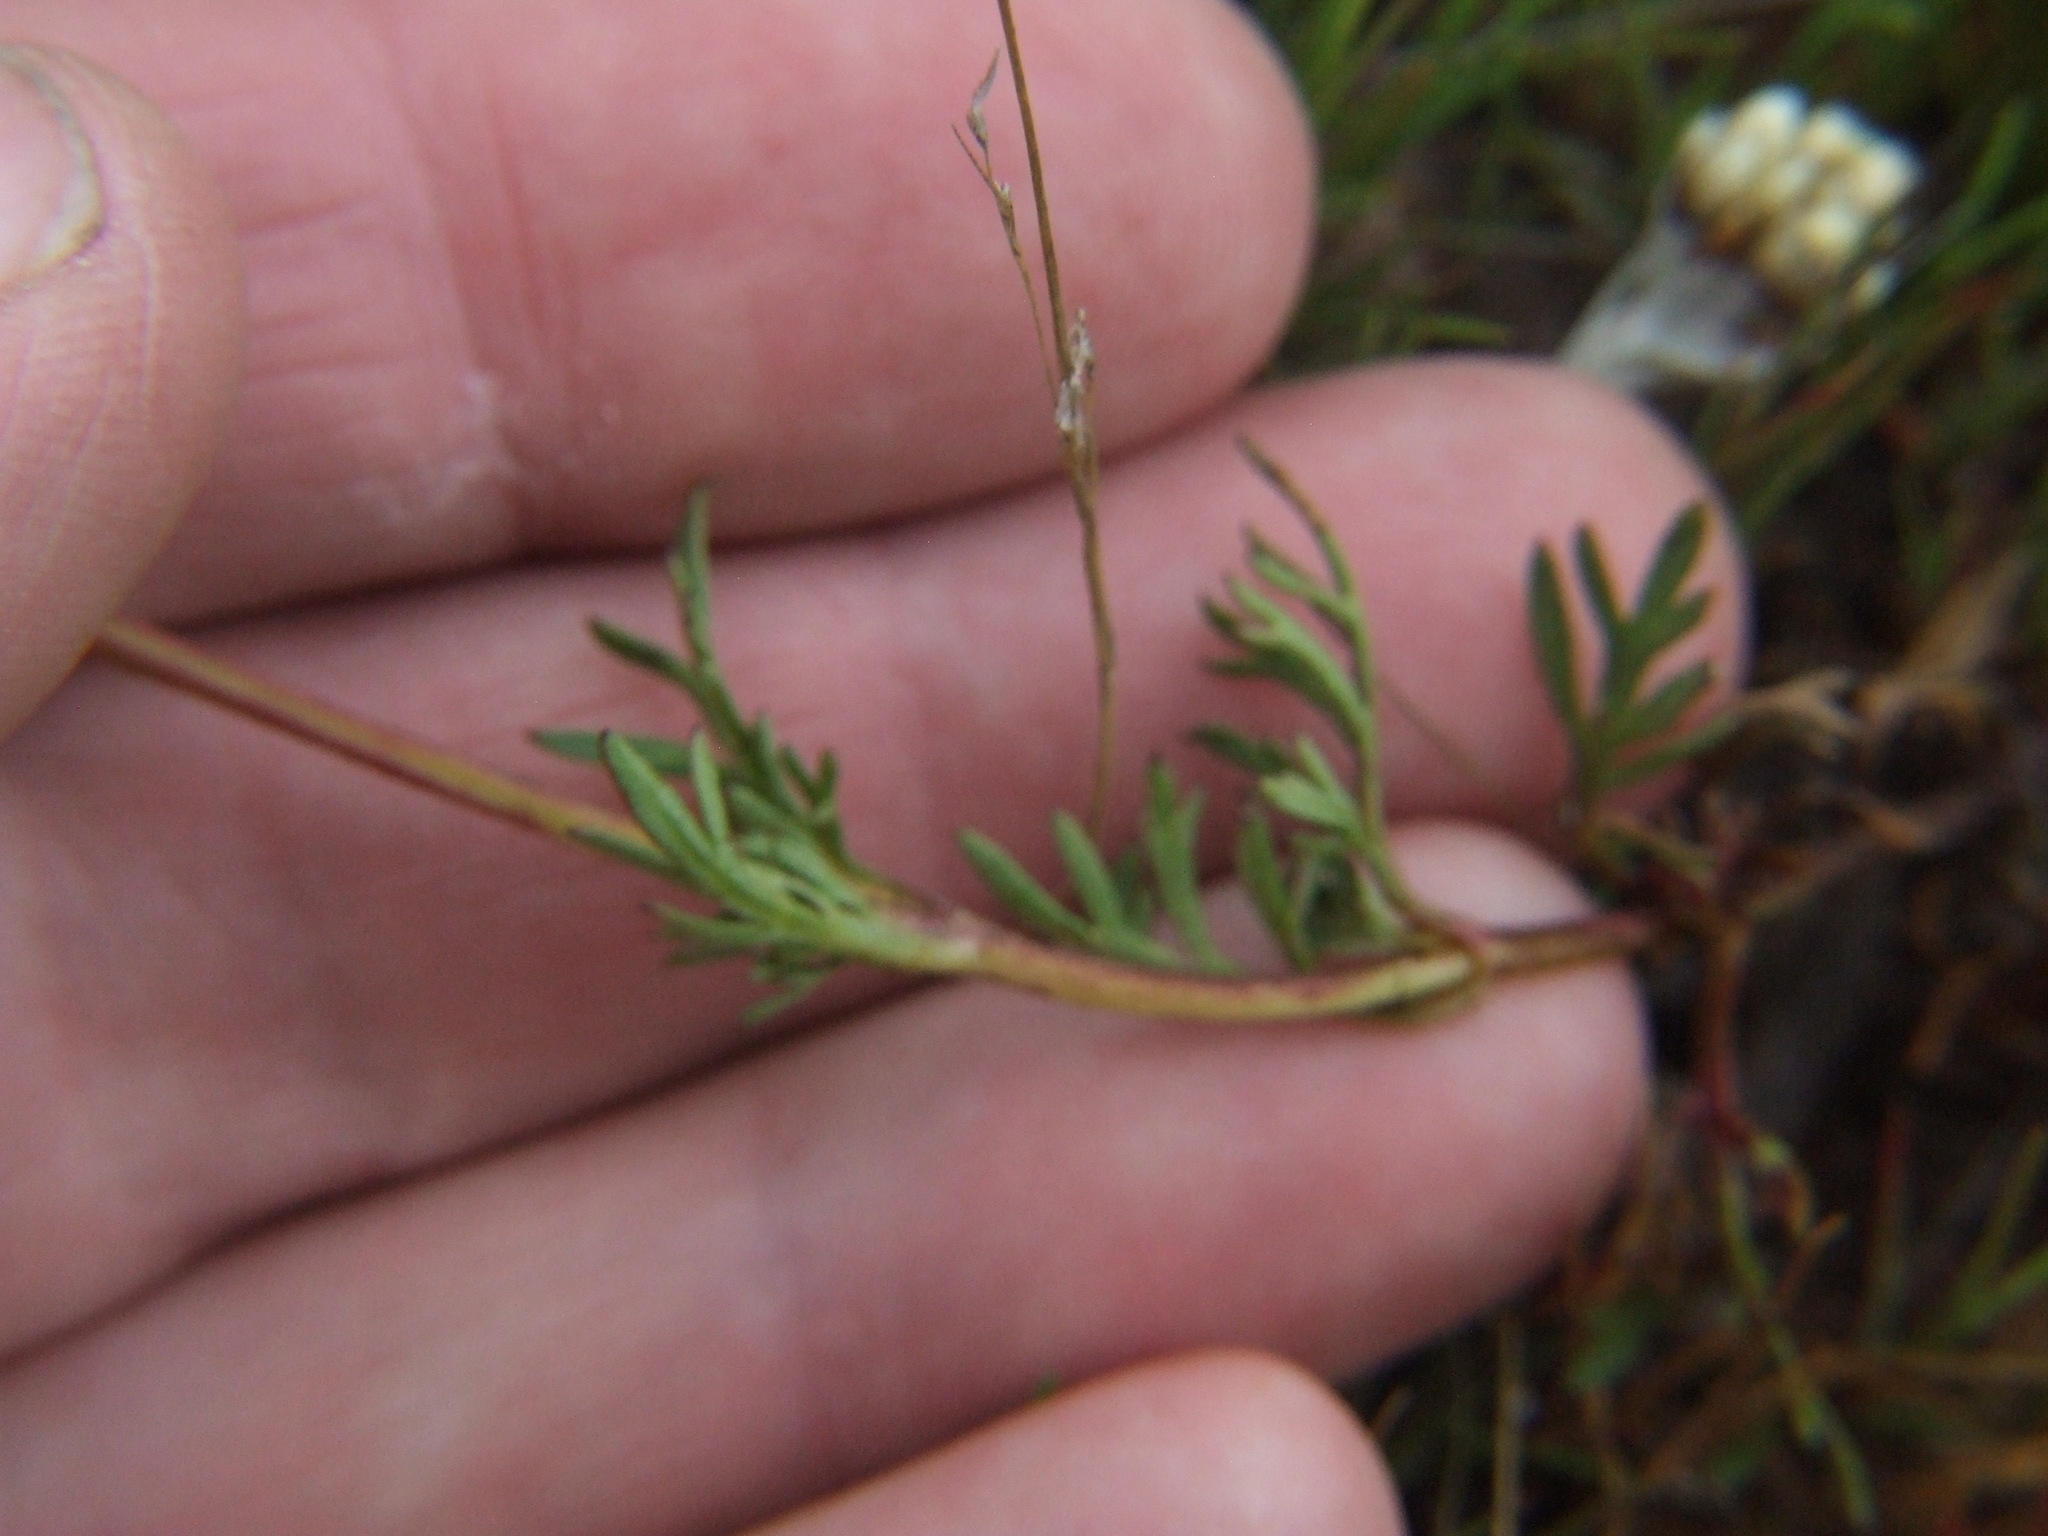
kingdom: Plantae
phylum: Tracheophyta
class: Magnoliopsida
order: Asterales
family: Asteraceae
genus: Bidens
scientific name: Bidens andicola
